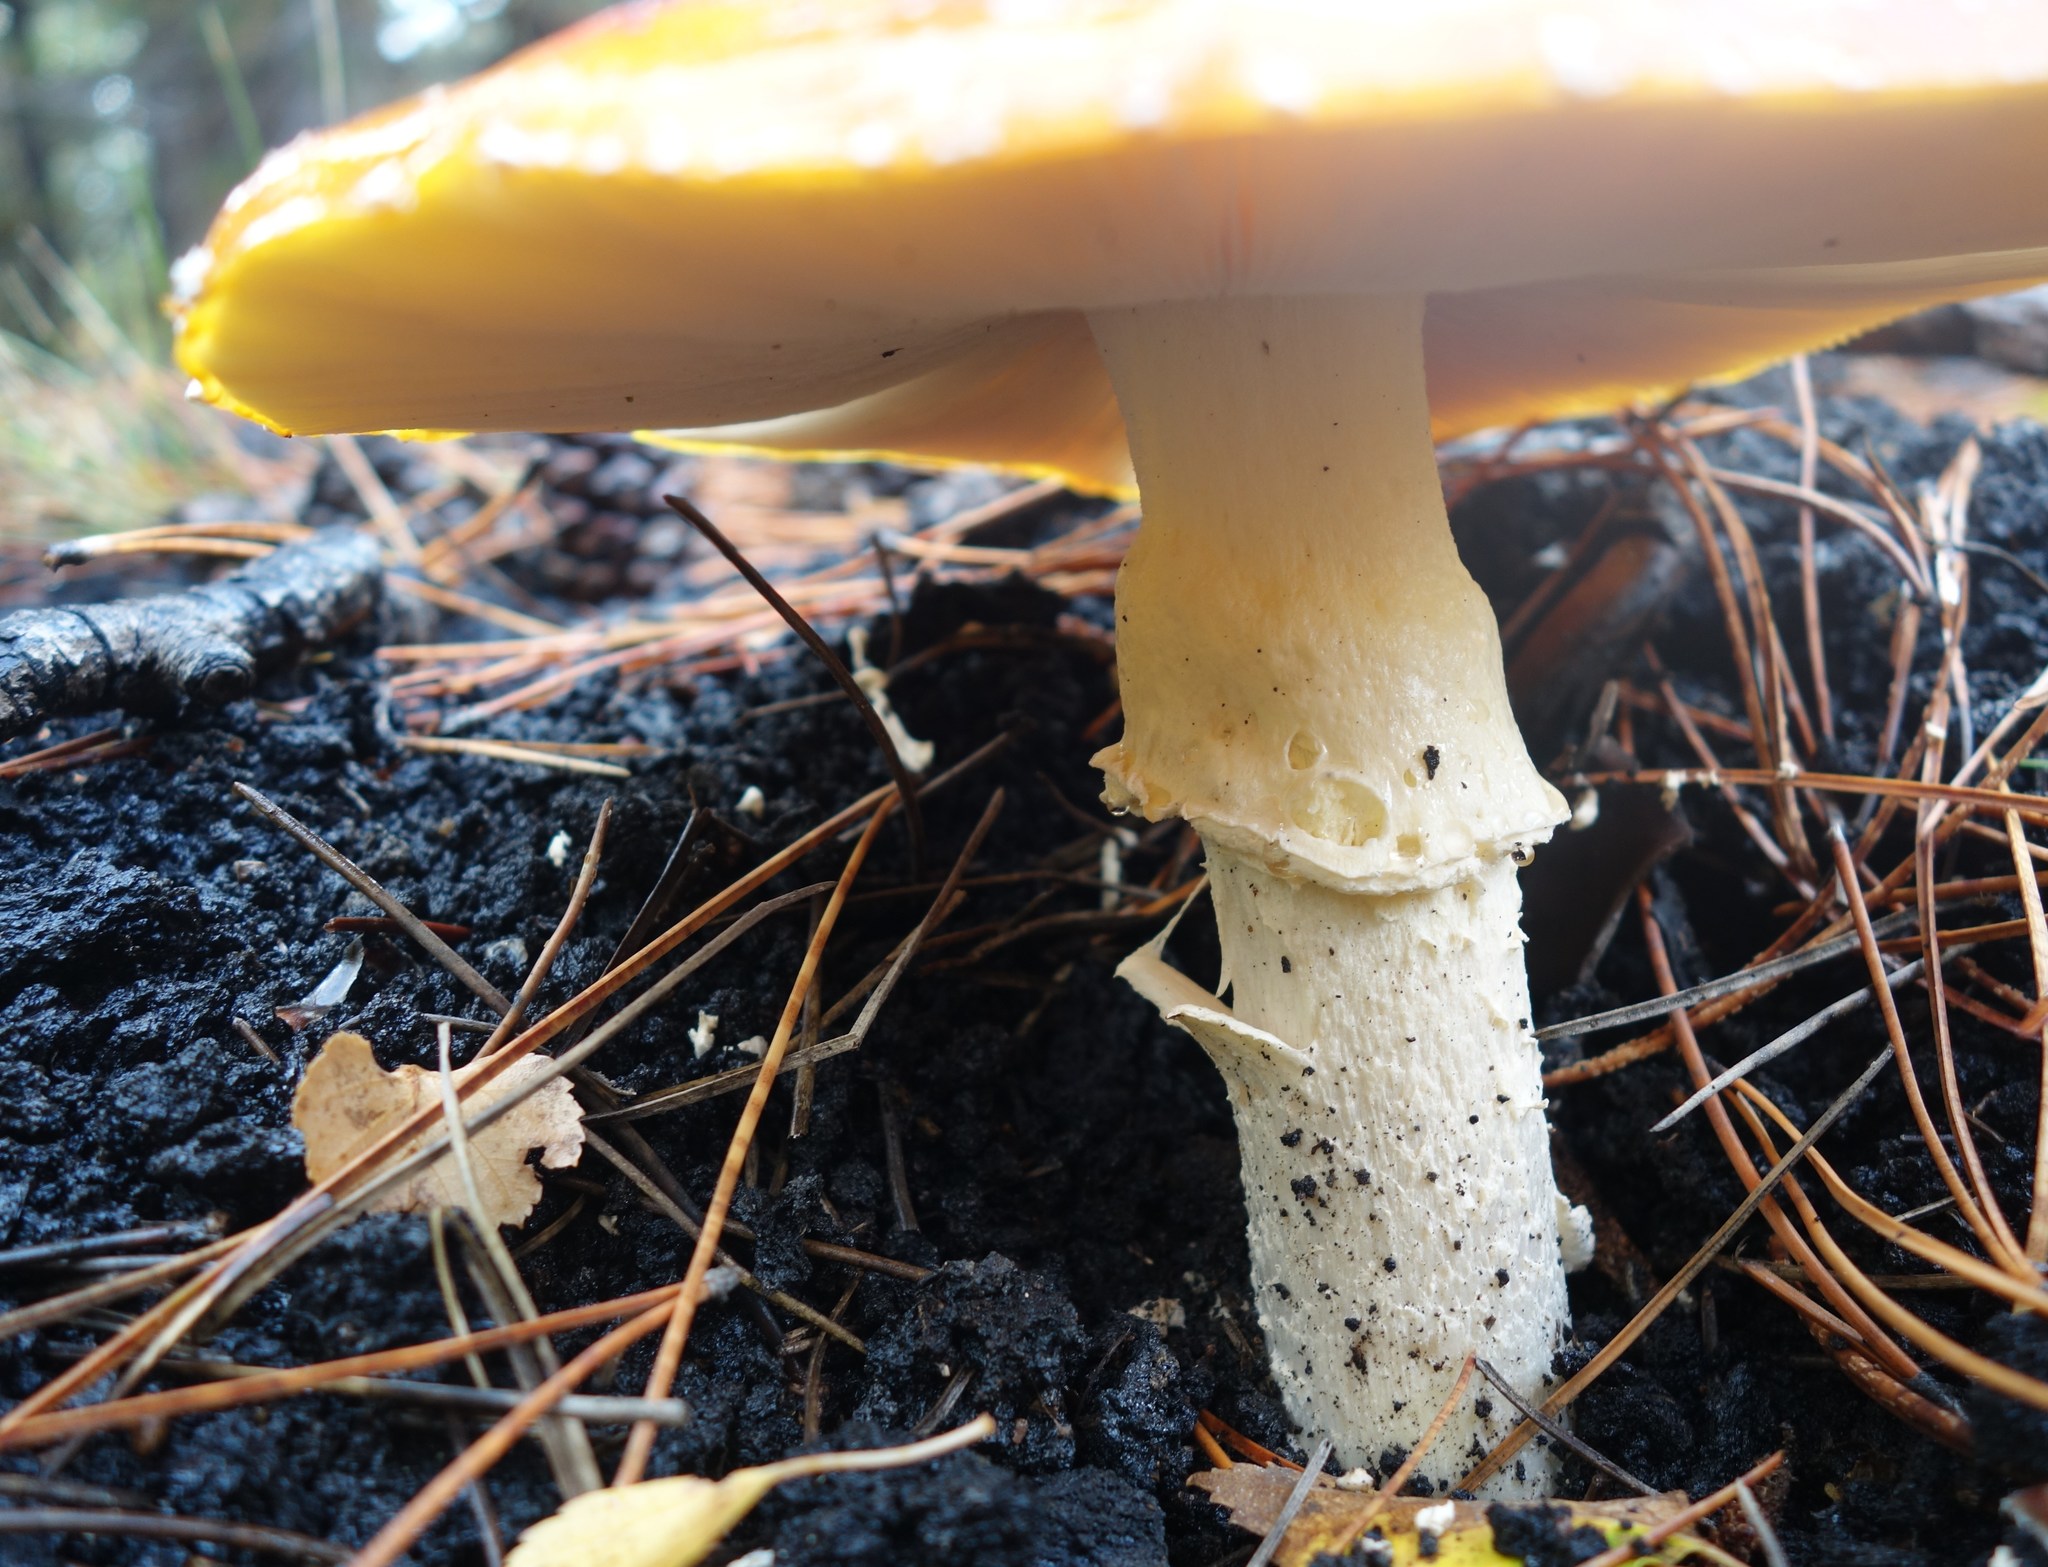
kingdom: Fungi
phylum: Basidiomycota
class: Agaricomycetes
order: Agaricales
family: Amanitaceae
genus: Amanita
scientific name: Amanita muscaria
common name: Fly agaric
